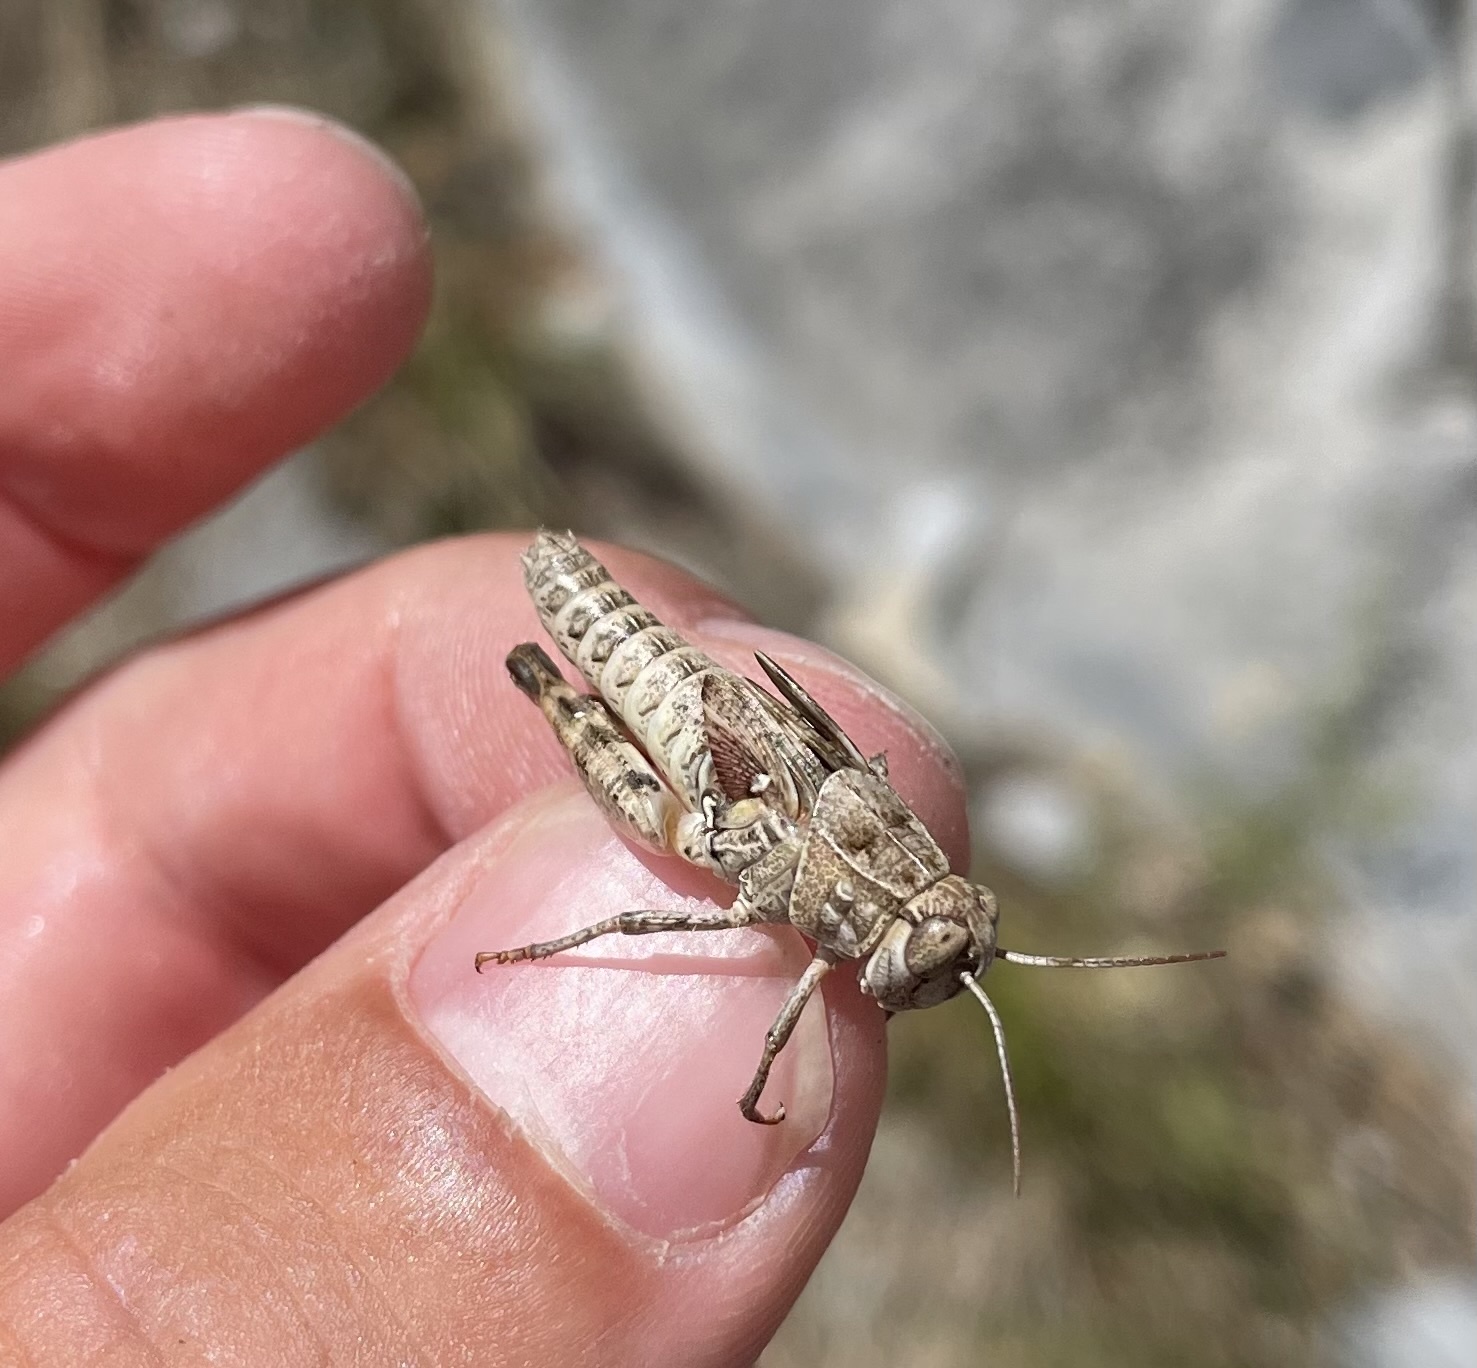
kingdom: Animalia
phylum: Arthropoda
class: Insecta
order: Orthoptera
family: Acrididae
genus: Calliptamus
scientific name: Calliptamus italicus
